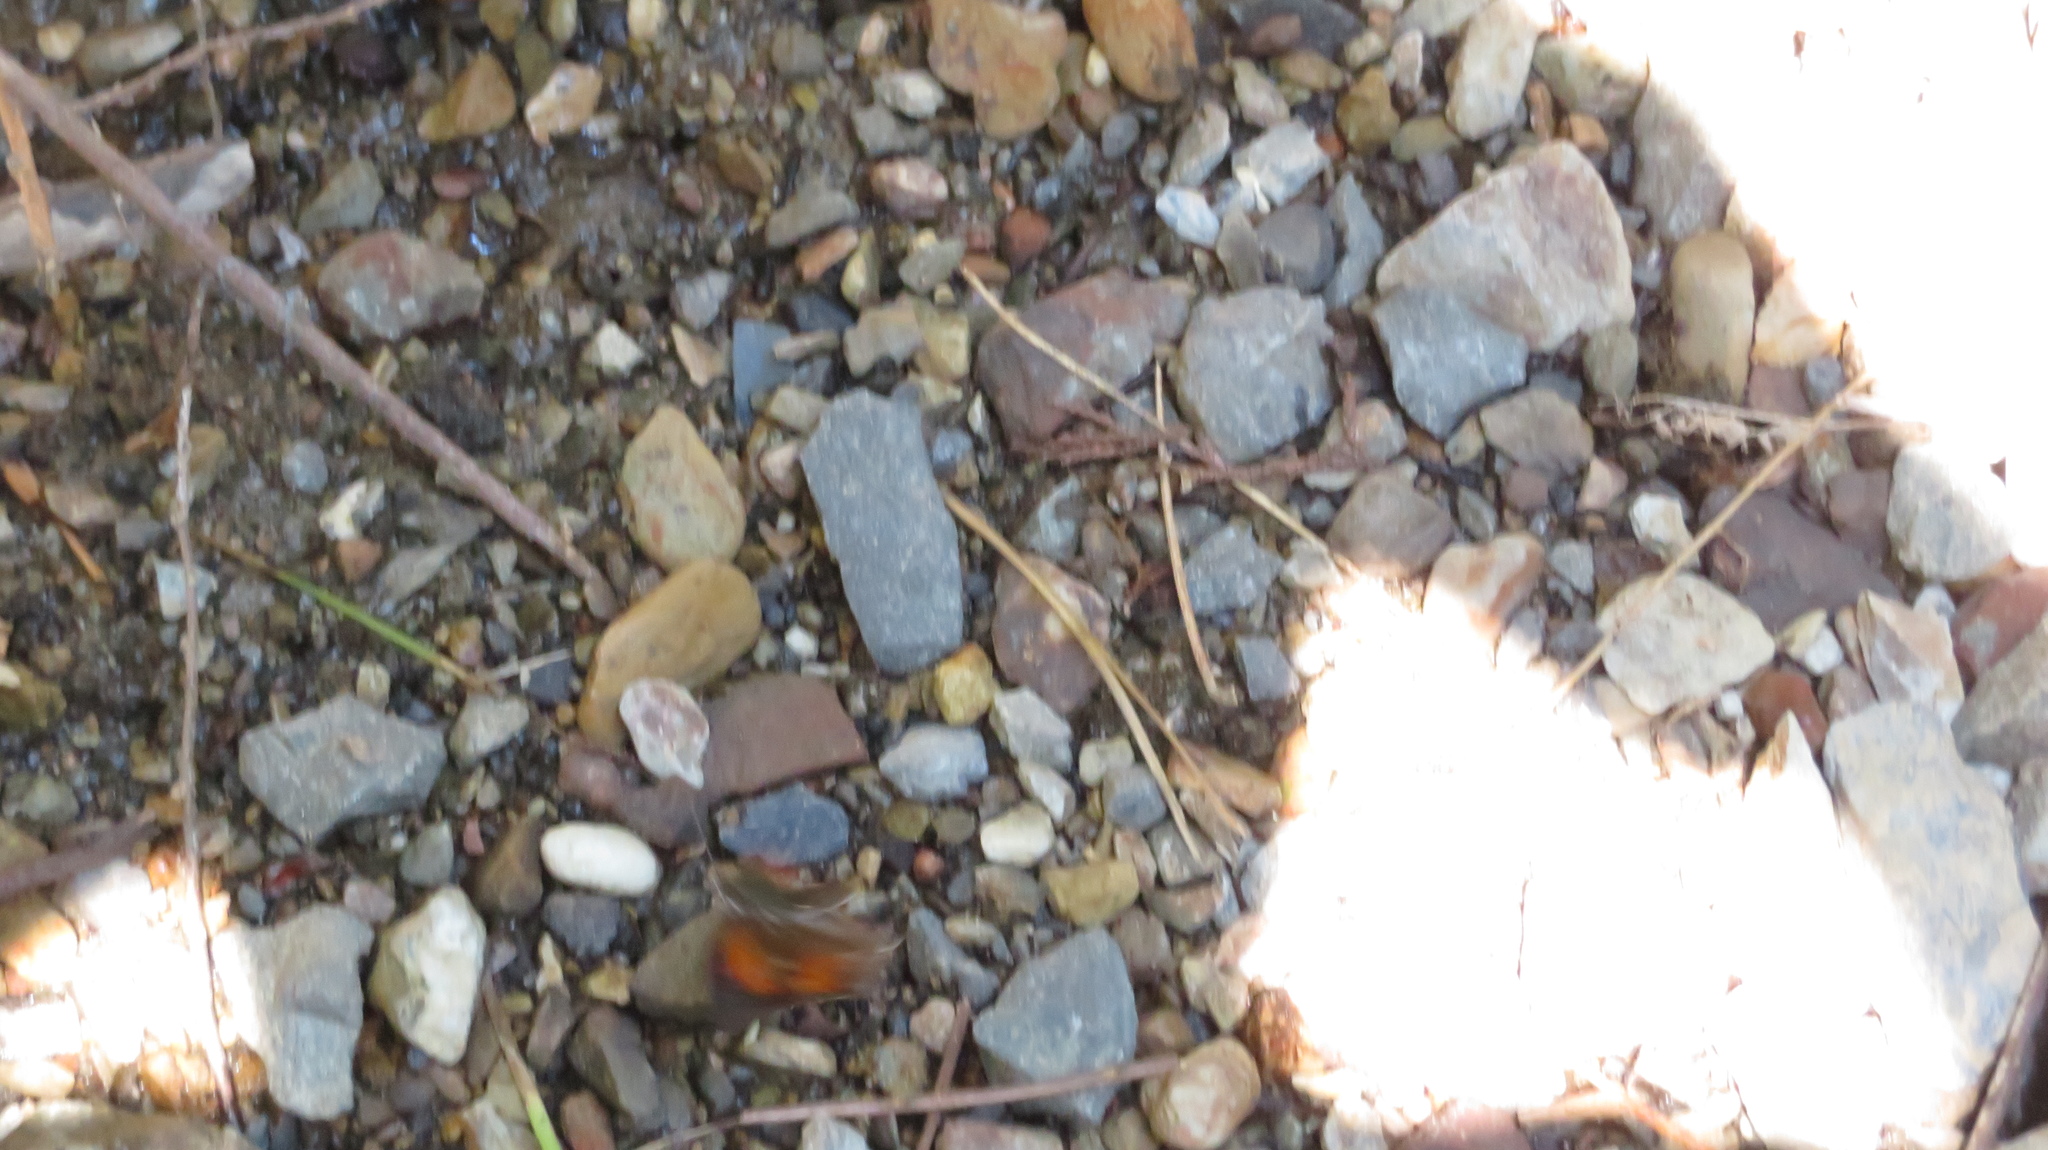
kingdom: Animalia
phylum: Arthropoda
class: Insecta
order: Lepidoptera
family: Lycaenidae
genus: Curetis
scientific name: Curetis acuta
